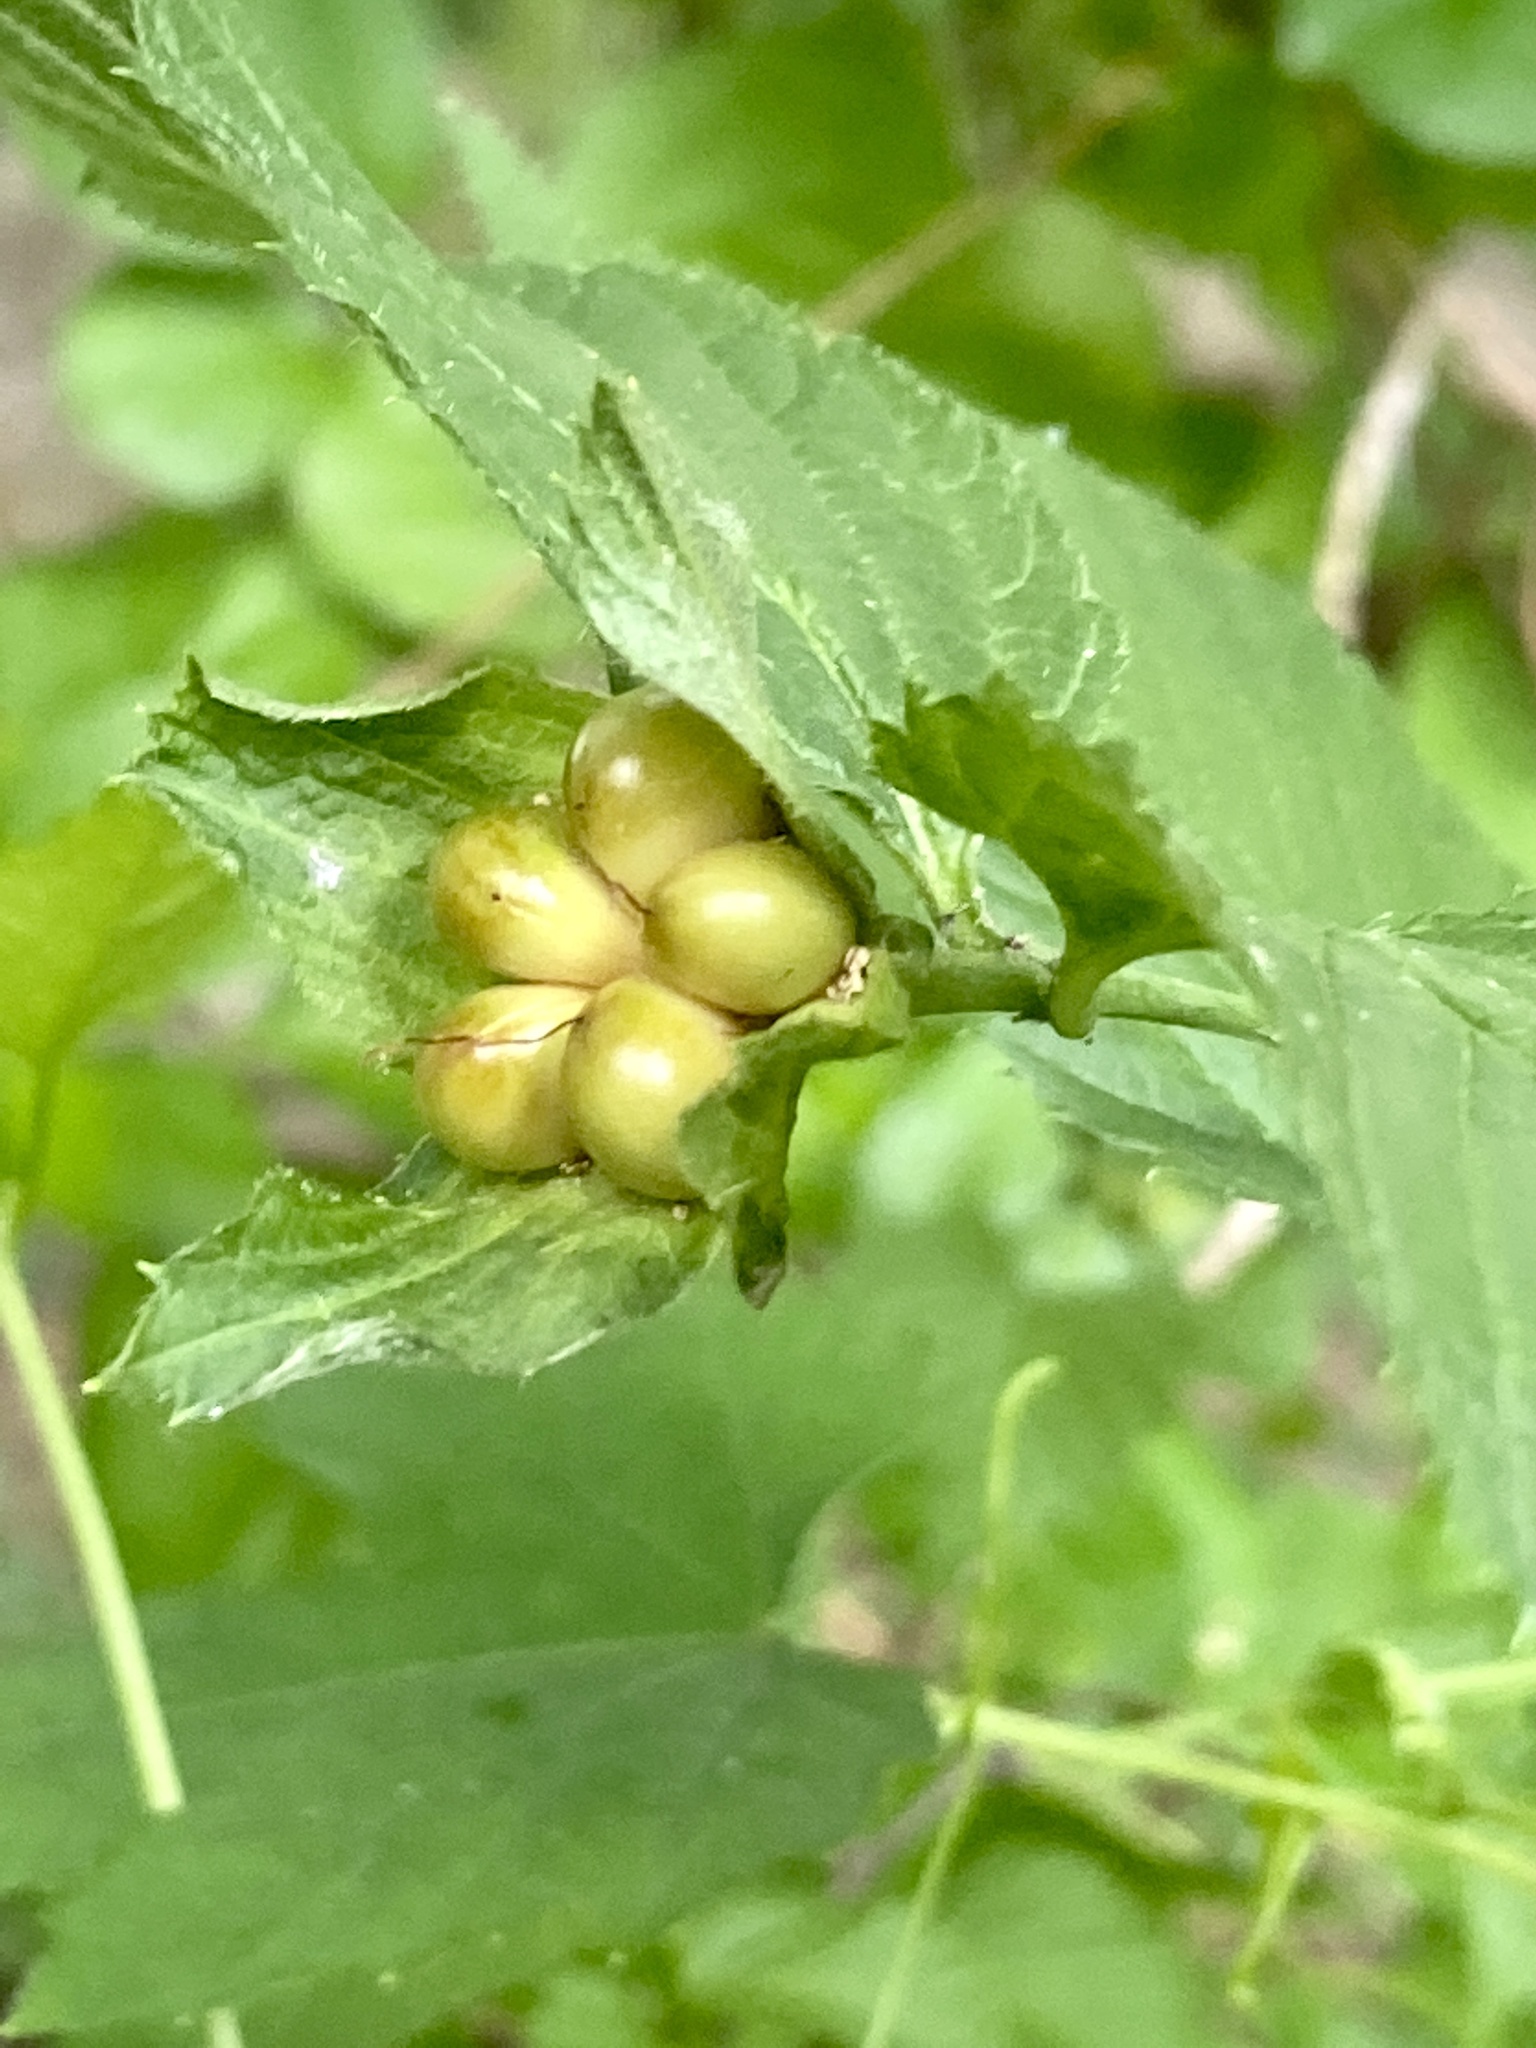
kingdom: Plantae
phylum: Tracheophyta
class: Magnoliopsida
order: Rosales
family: Rosaceae
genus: Rhodotypos
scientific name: Rhodotypos scandens
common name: Jetbead
